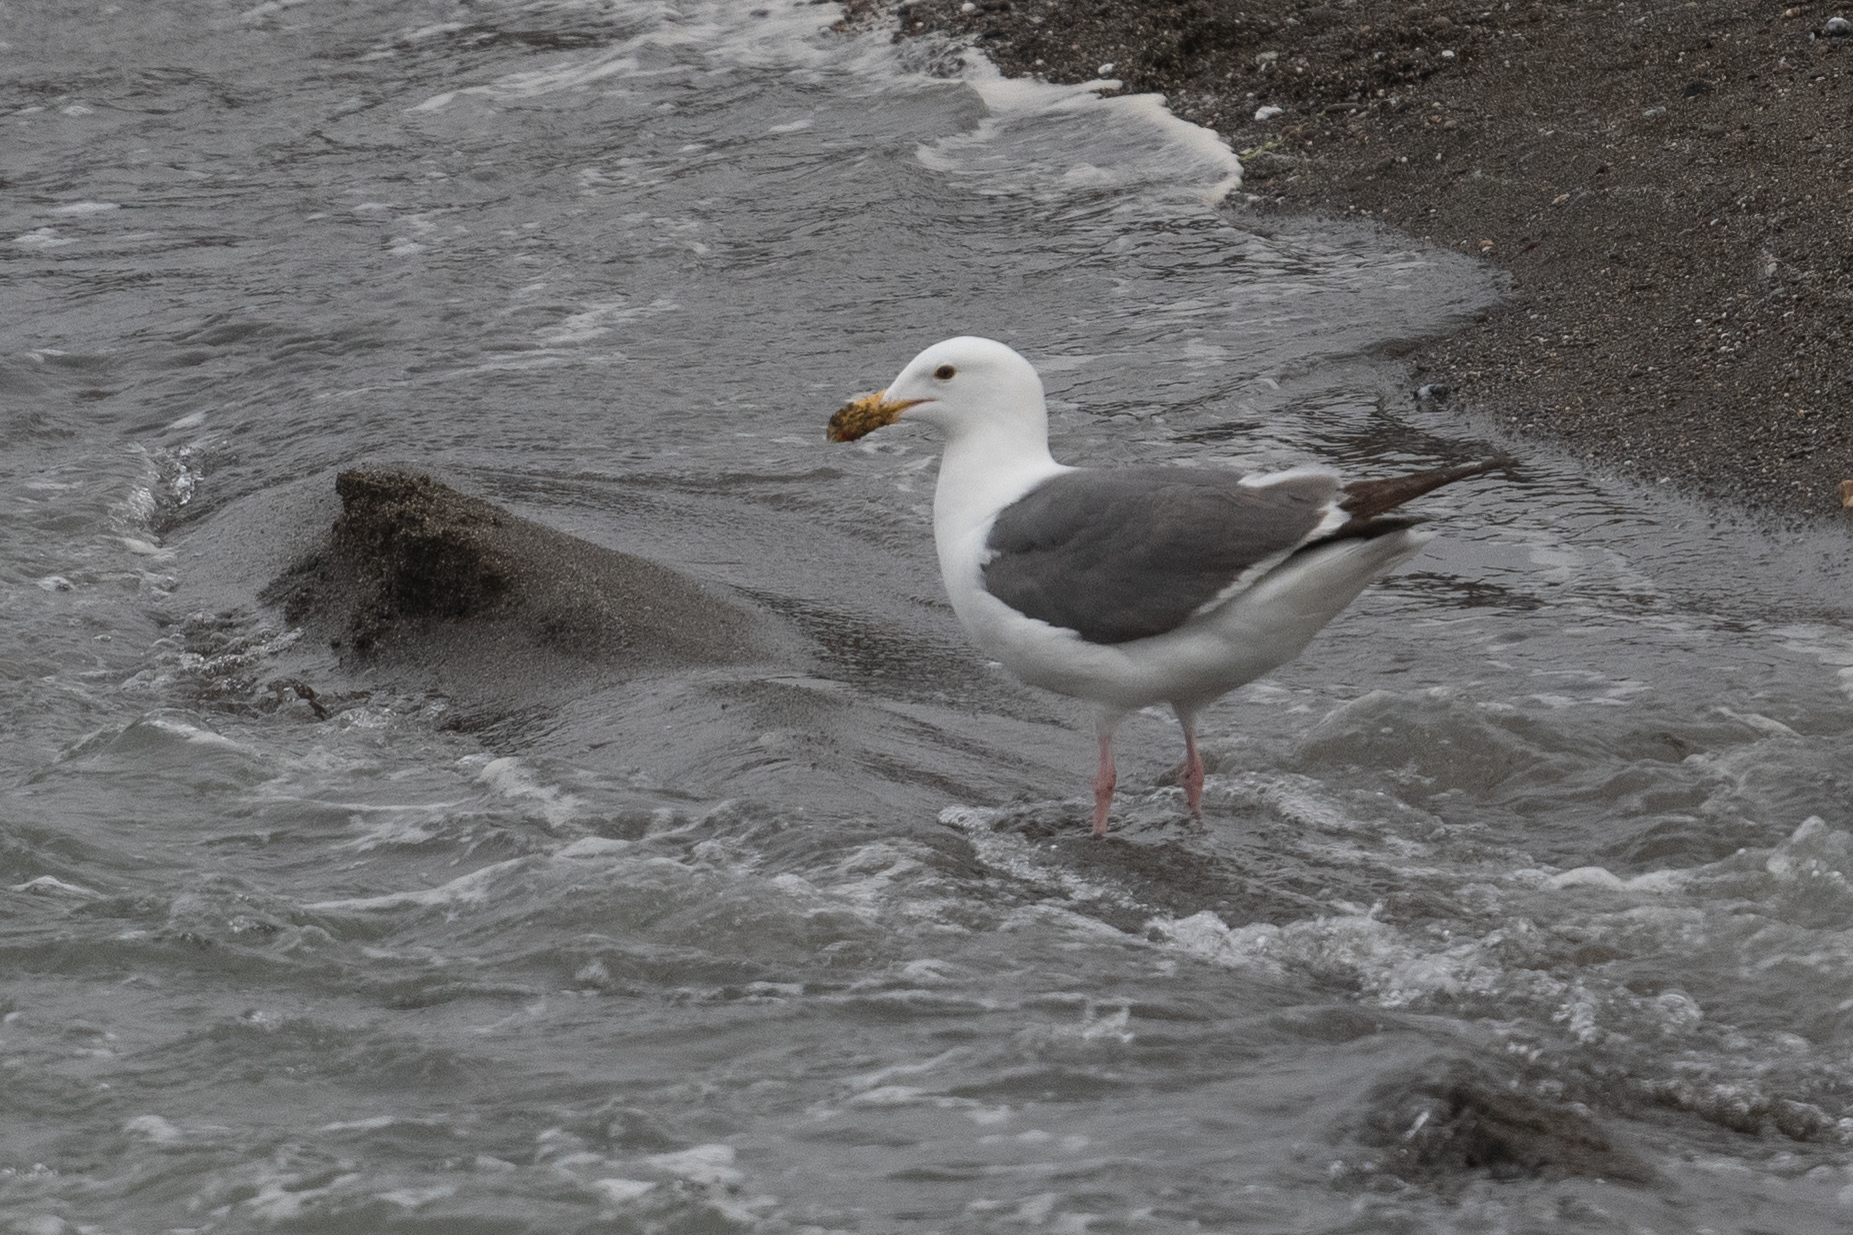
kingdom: Animalia
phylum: Chordata
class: Aves
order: Charadriiformes
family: Laridae
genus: Larus
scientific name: Larus occidentalis
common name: Western gull
